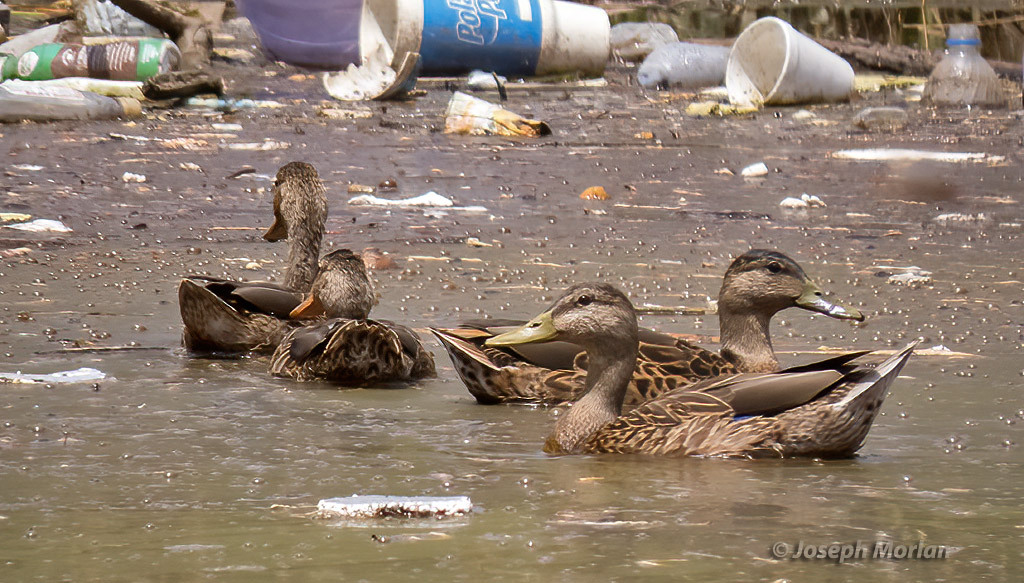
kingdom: Animalia
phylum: Chordata
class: Aves
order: Anseriformes
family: Anatidae
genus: Anas
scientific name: Anas platyrhynchos
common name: Mallard
